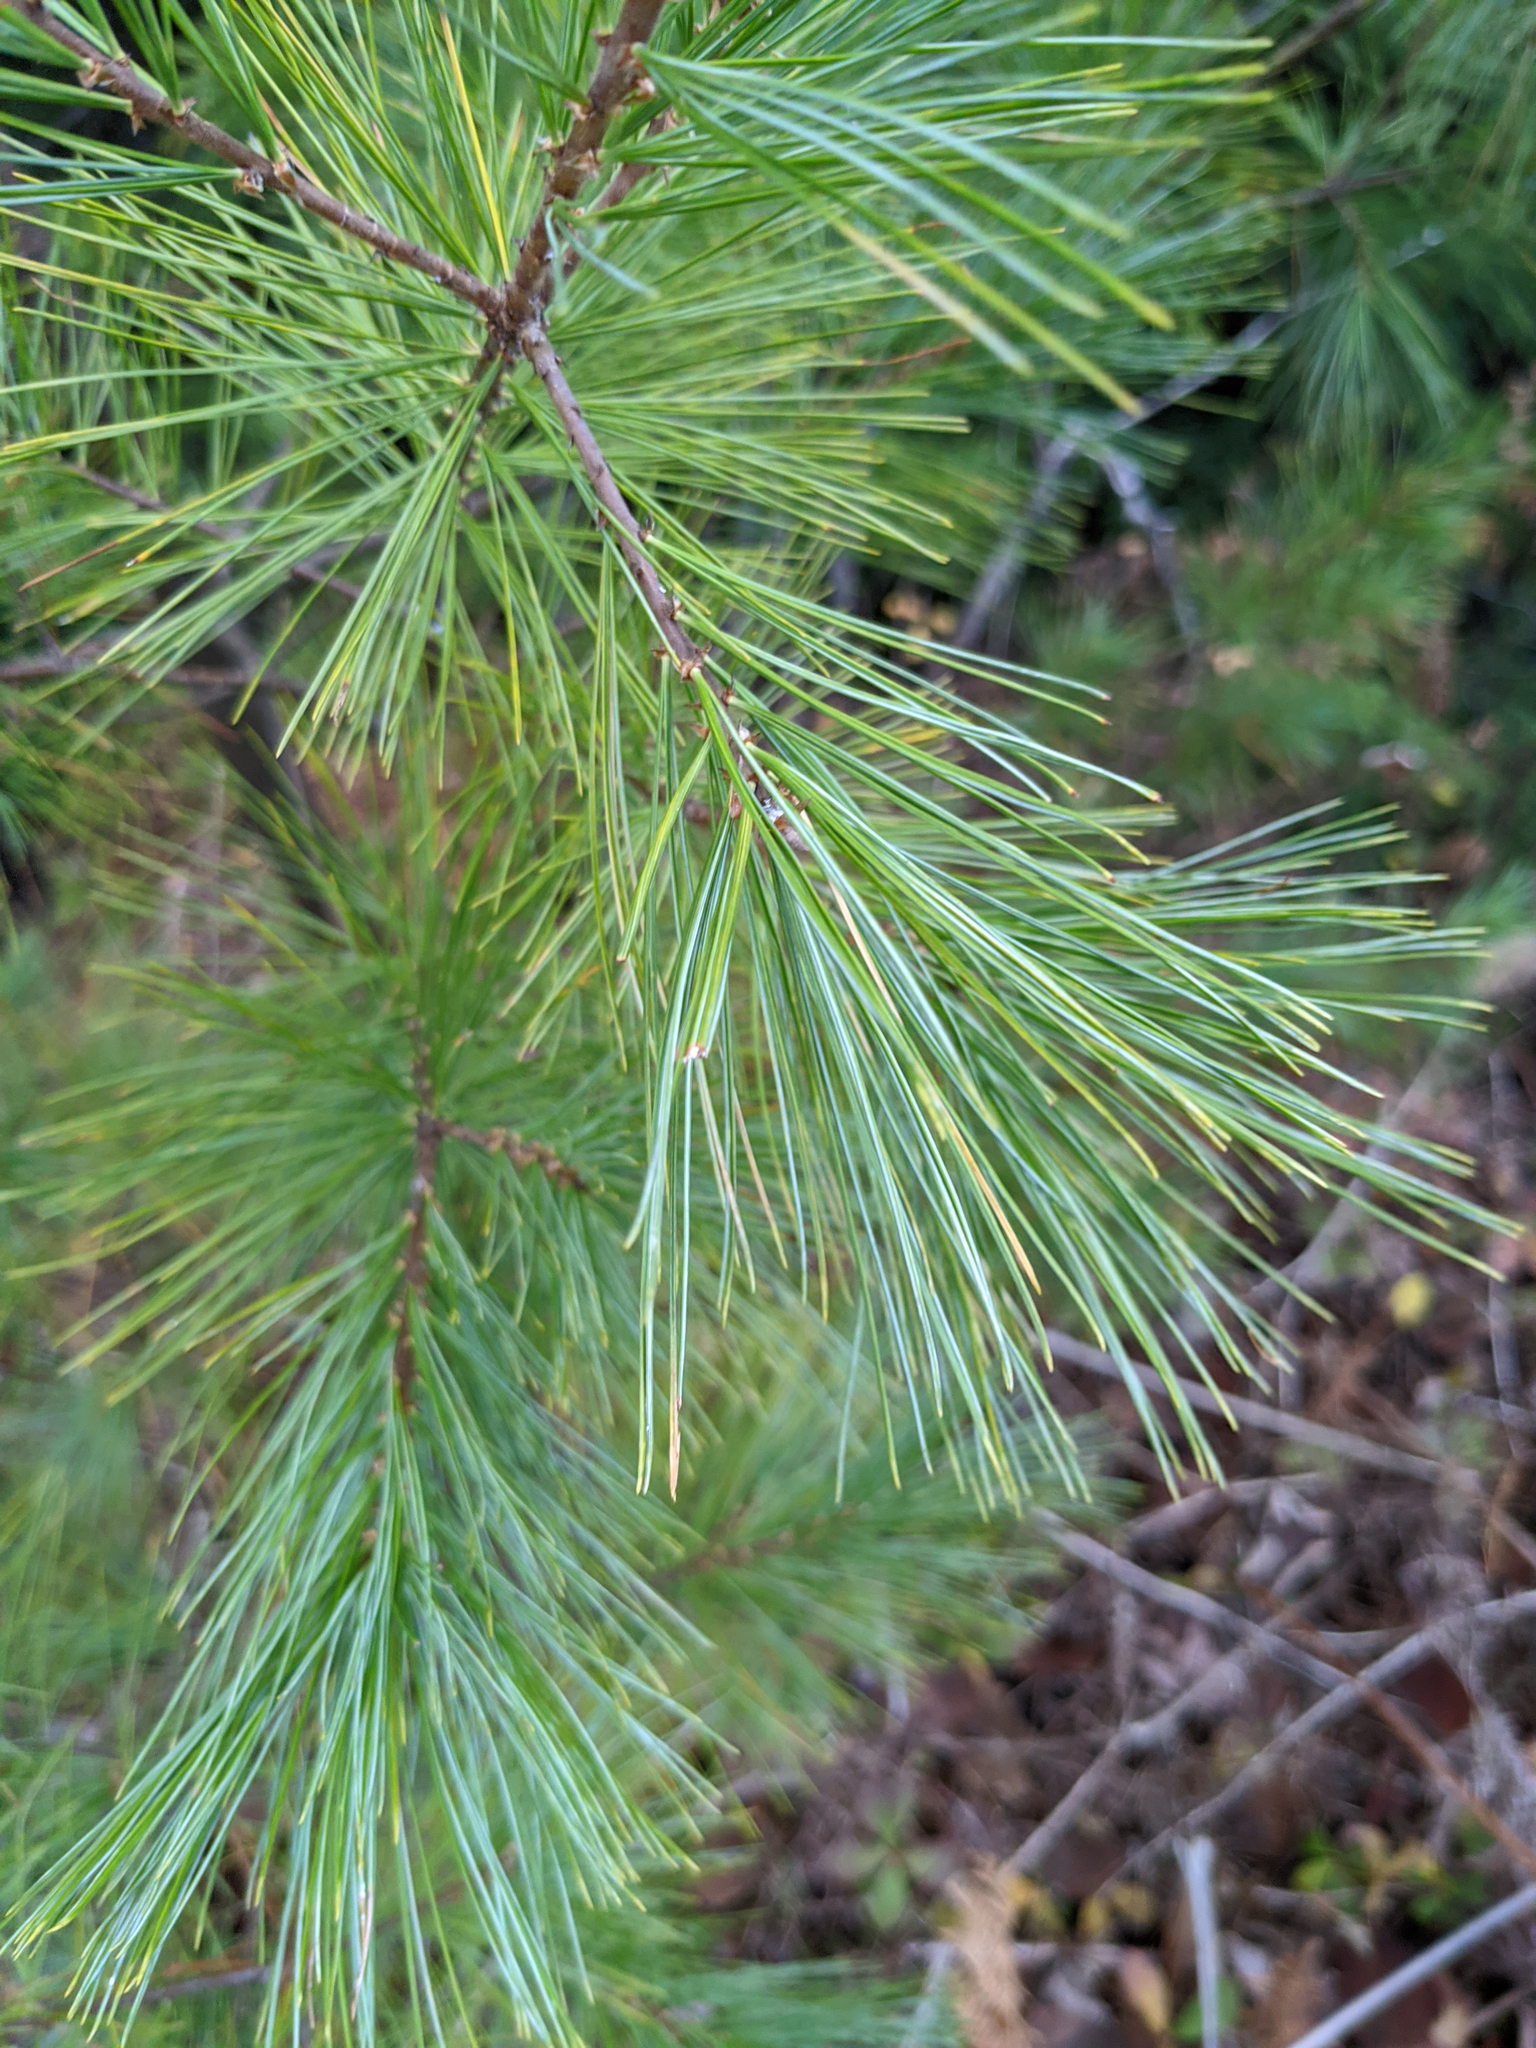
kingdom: Plantae
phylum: Tracheophyta
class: Pinopsida
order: Pinales
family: Pinaceae
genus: Pinus
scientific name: Pinus strobus
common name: Weymouth pine
